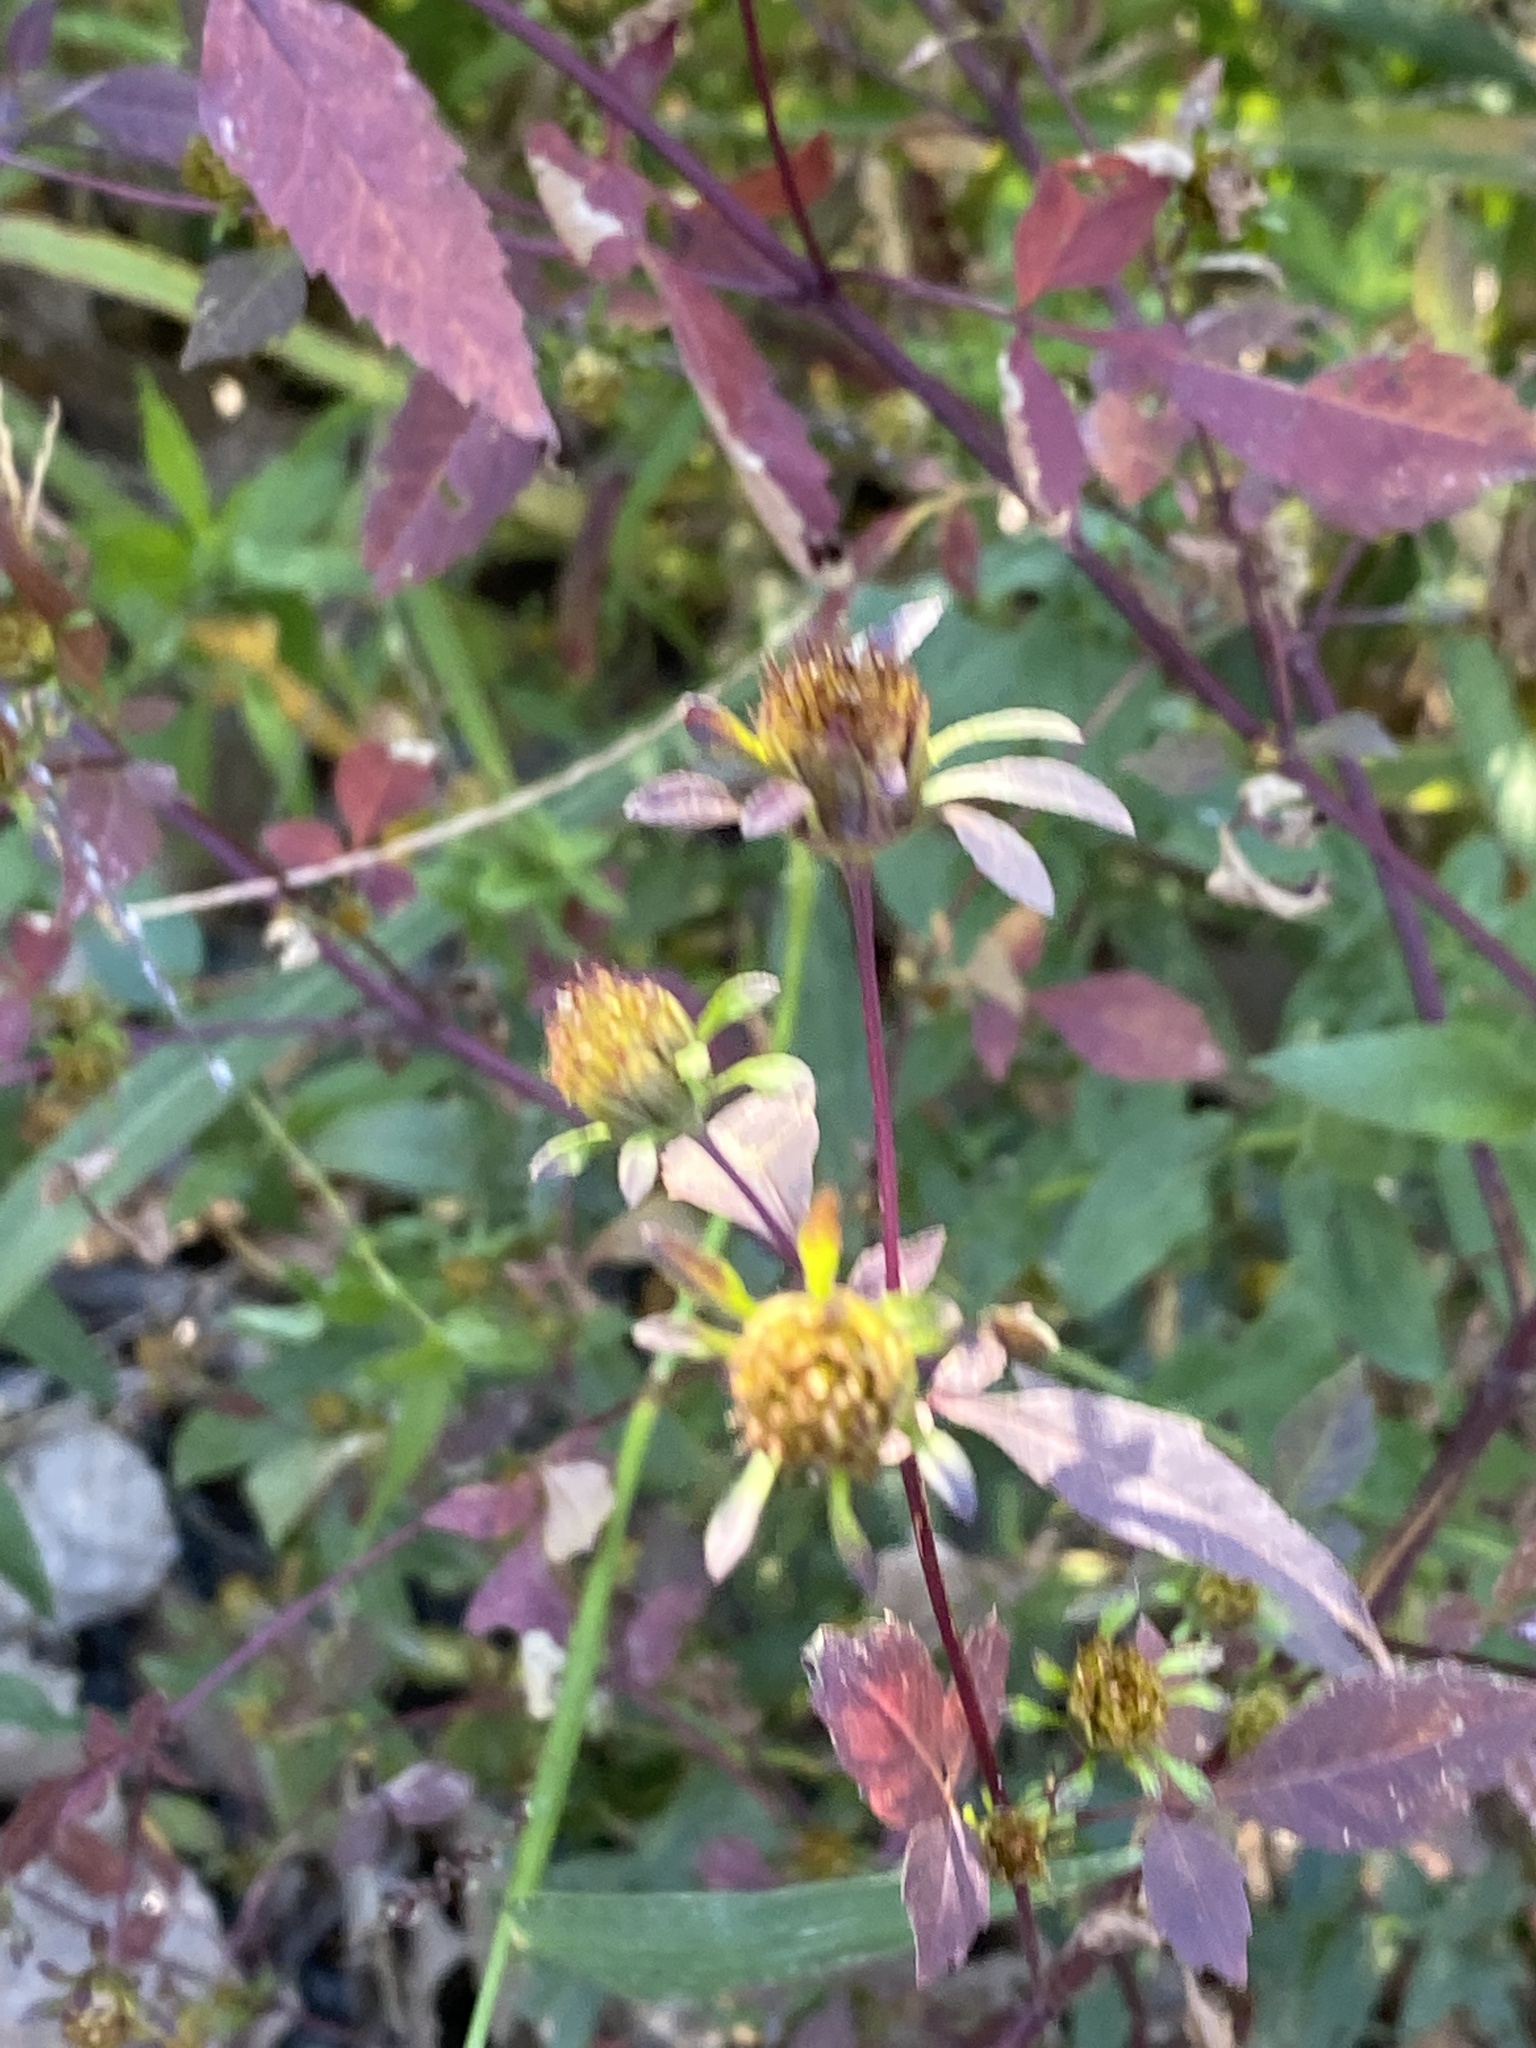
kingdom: Plantae
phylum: Tracheophyta
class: Magnoliopsida
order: Asterales
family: Asteraceae
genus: Bidens
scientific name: Bidens frondosa
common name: Beggarticks
